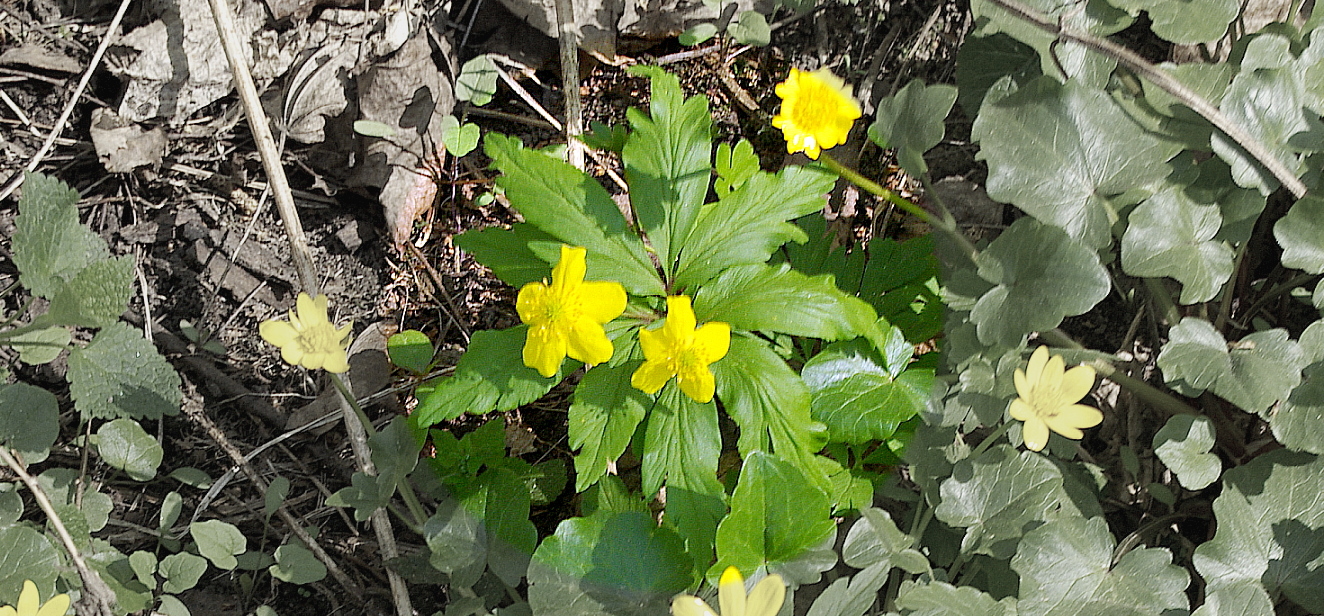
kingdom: Plantae
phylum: Tracheophyta
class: Magnoliopsida
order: Ranunculales
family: Ranunculaceae
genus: Anemone
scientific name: Anemone ranunculoides
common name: Yellow anemone
